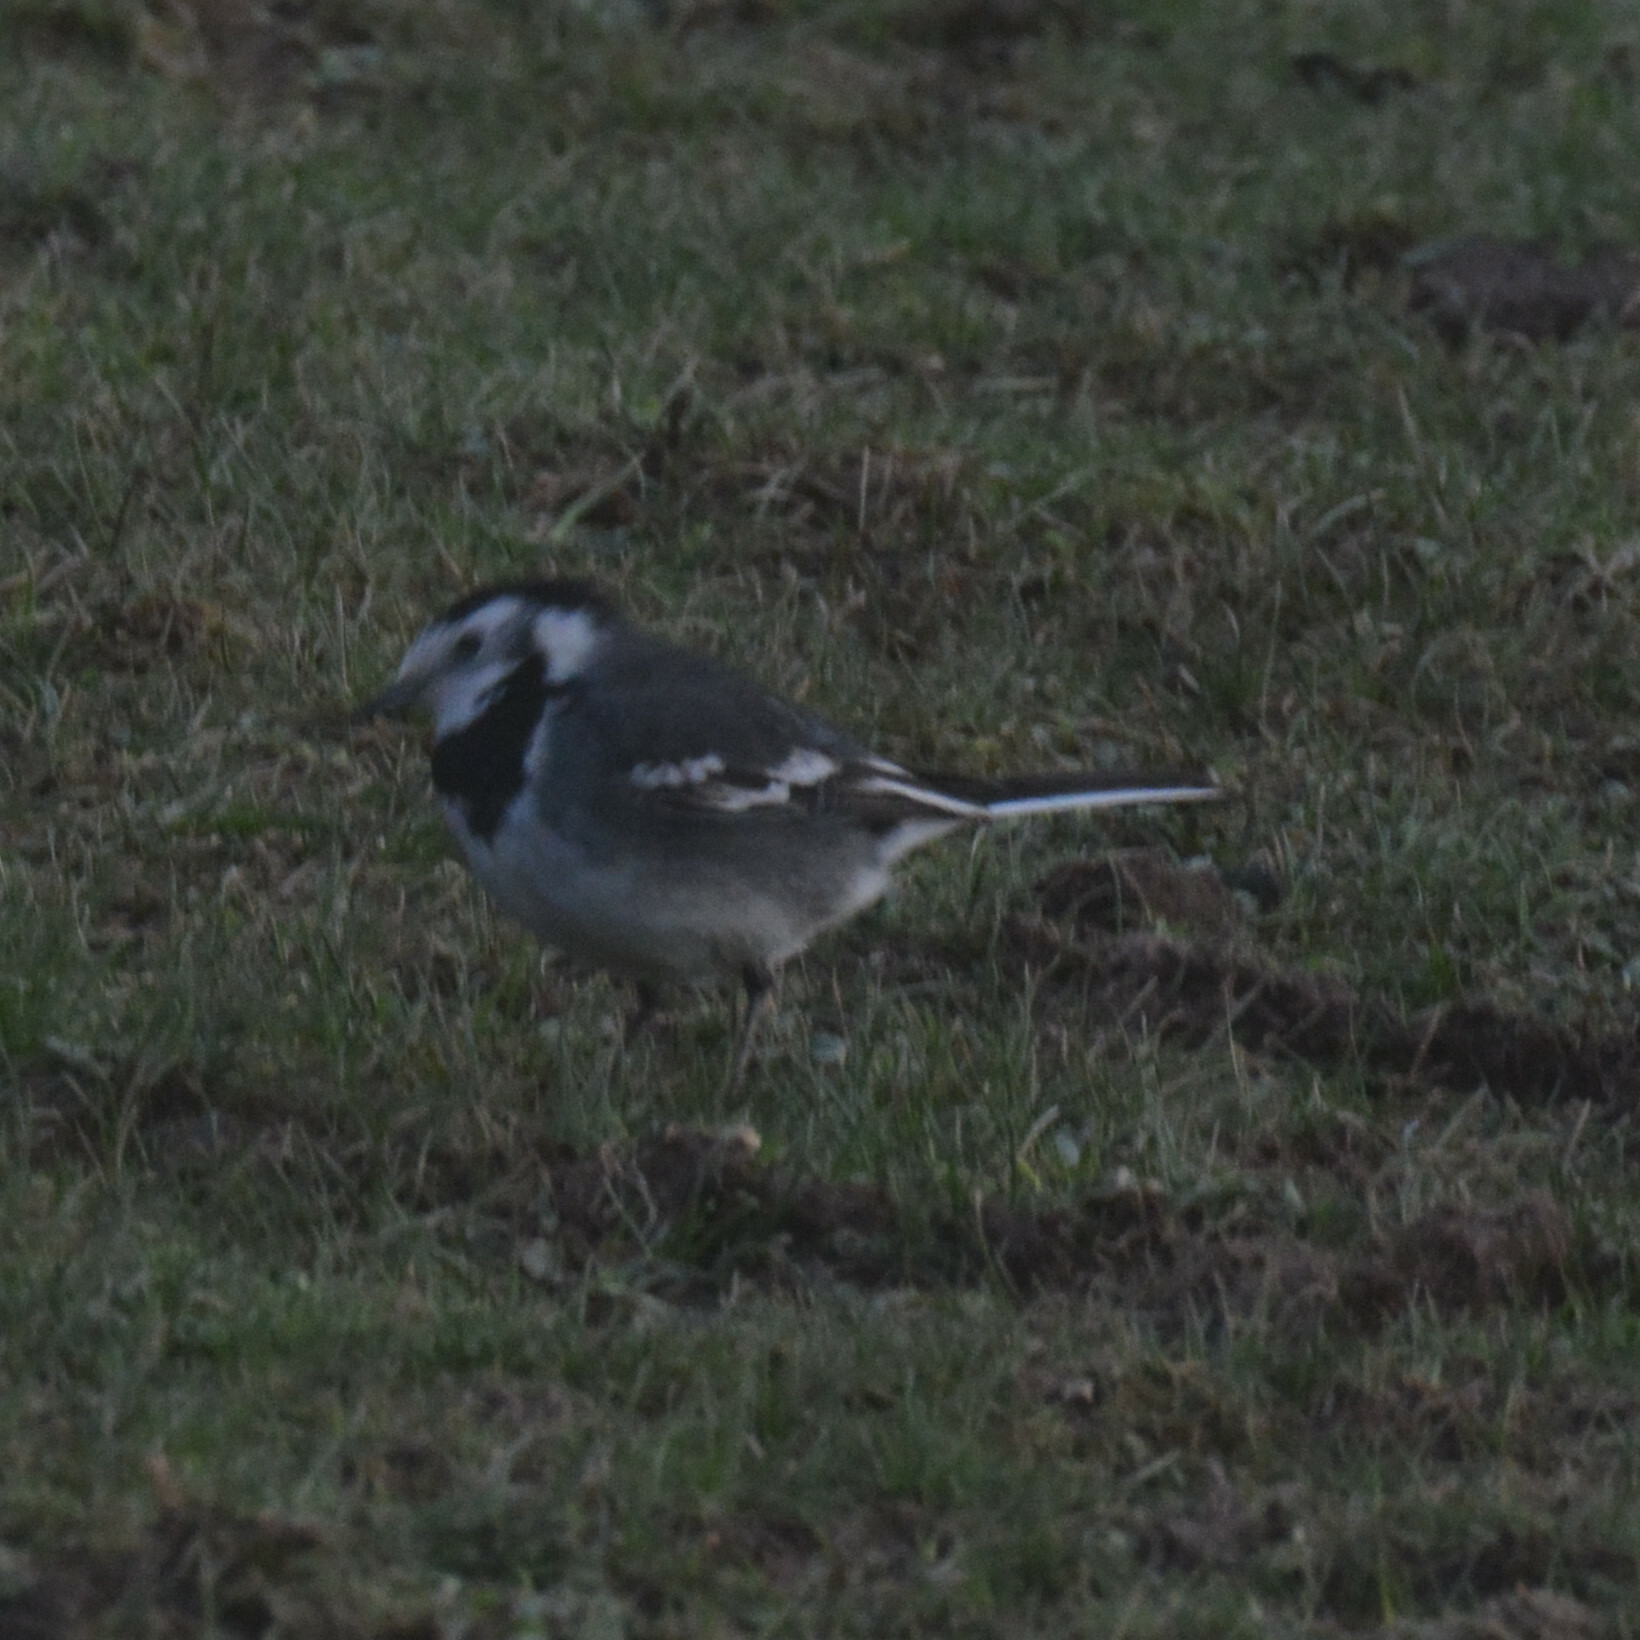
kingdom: Animalia
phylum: Chordata
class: Aves
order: Passeriformes
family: Motacillidae
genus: Motacilla
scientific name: Motacilla alba
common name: White wagtail
